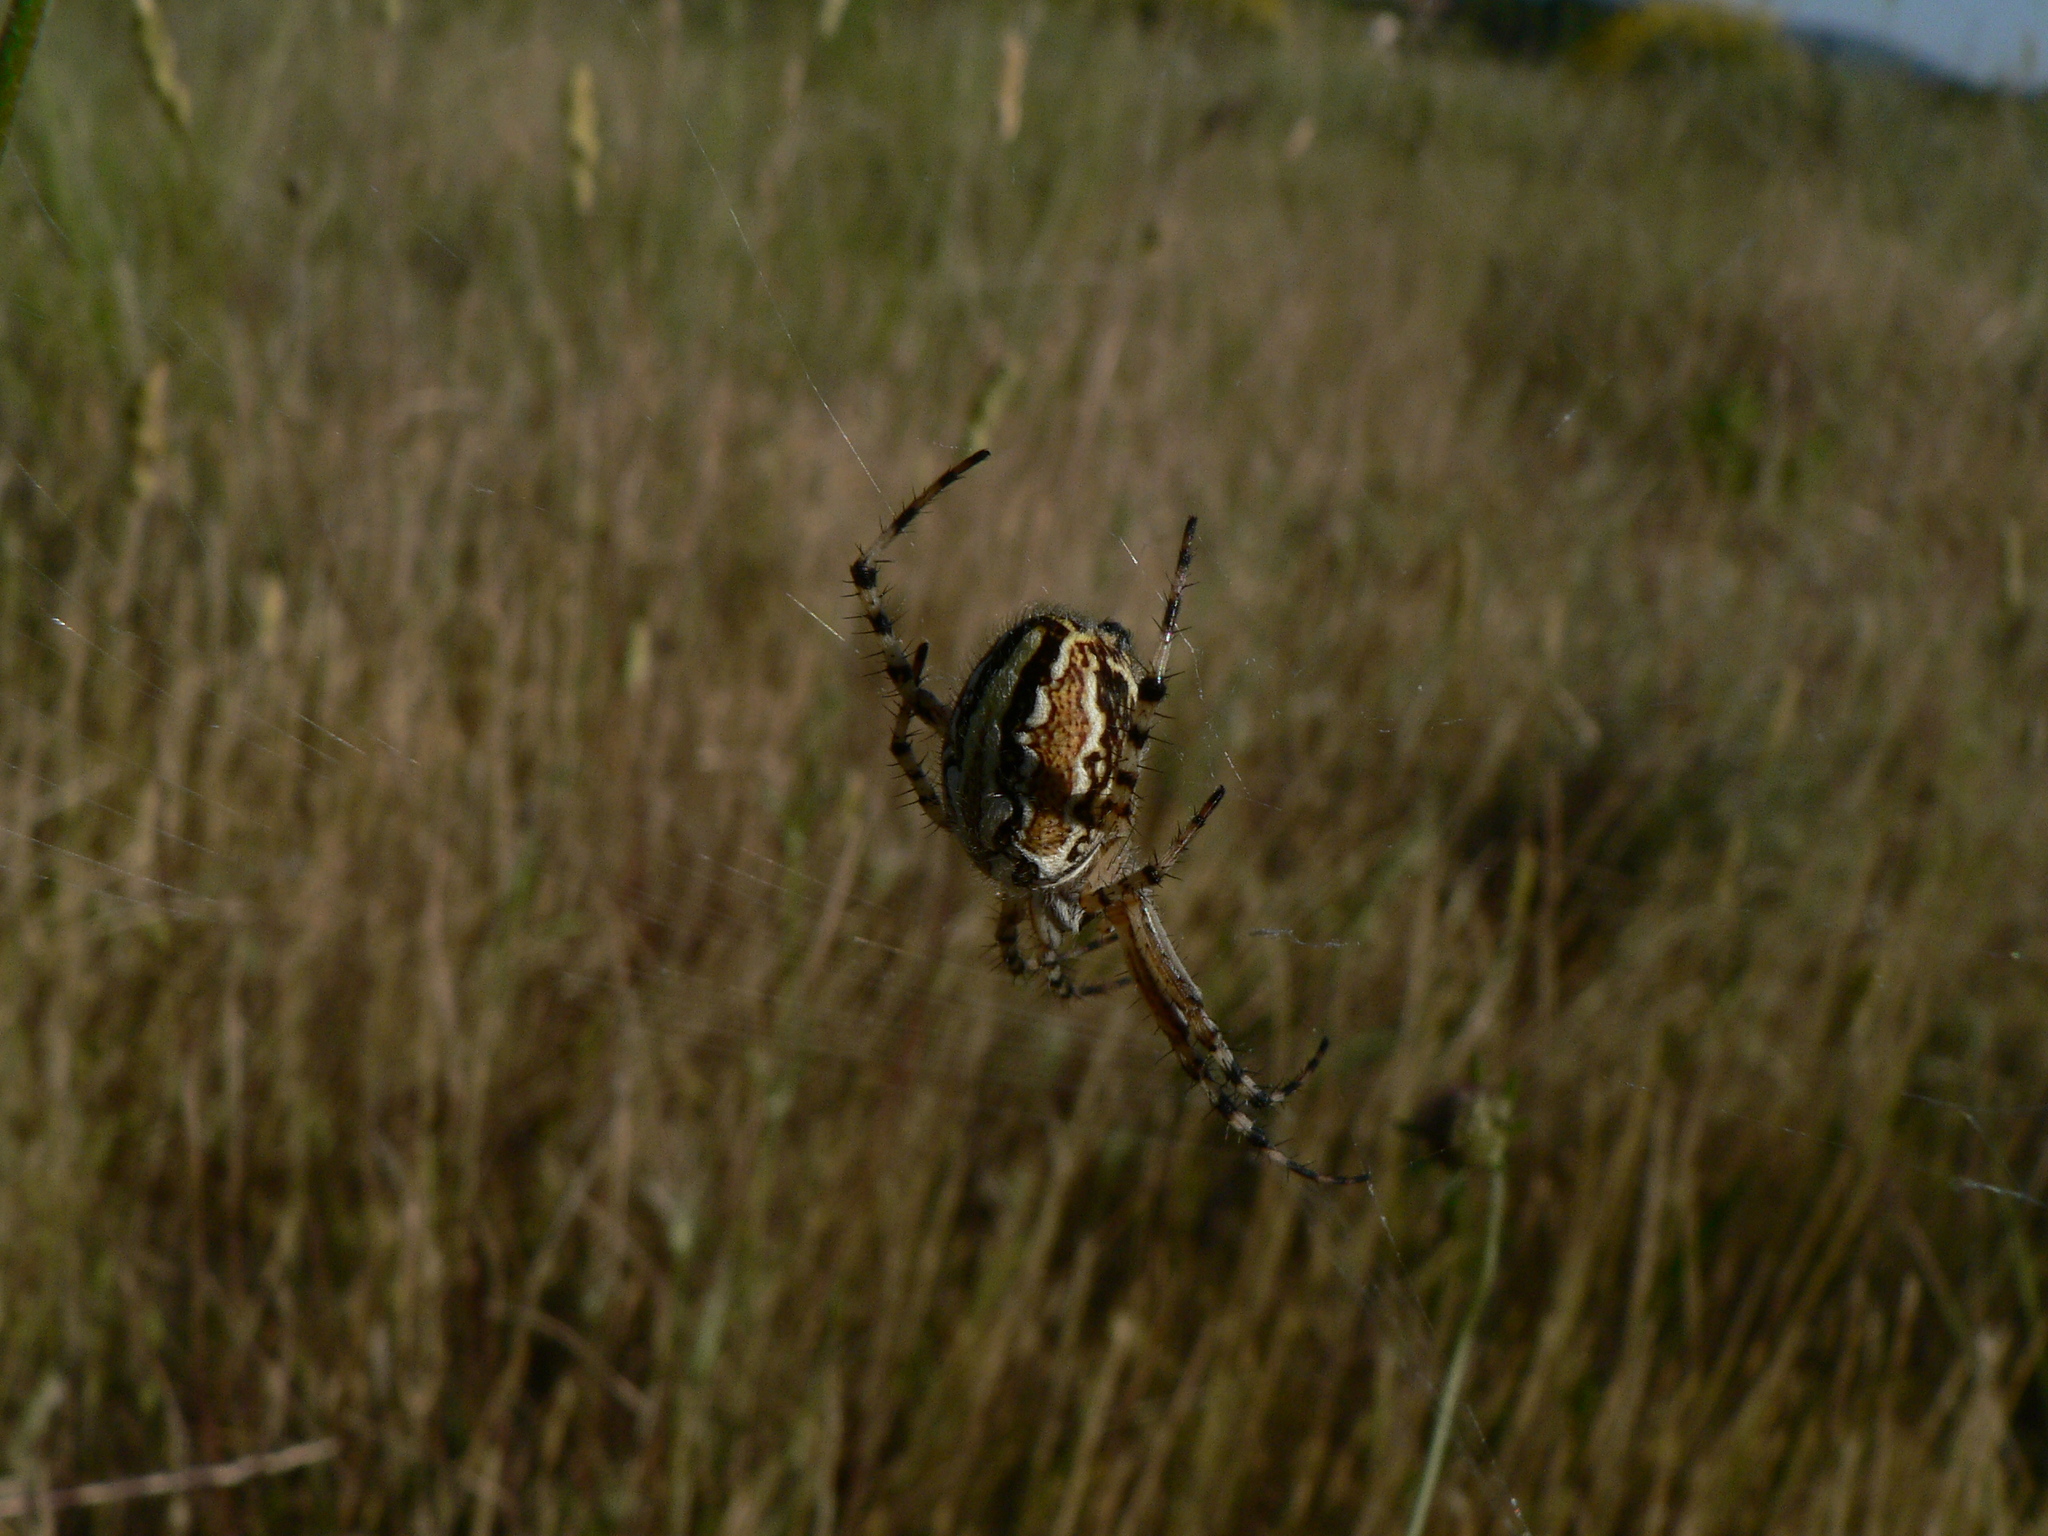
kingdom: Animalia
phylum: Arthropoda
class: Arachnida
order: Araneae
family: Araneidae
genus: Aculepeira
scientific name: Aculepeira armida
